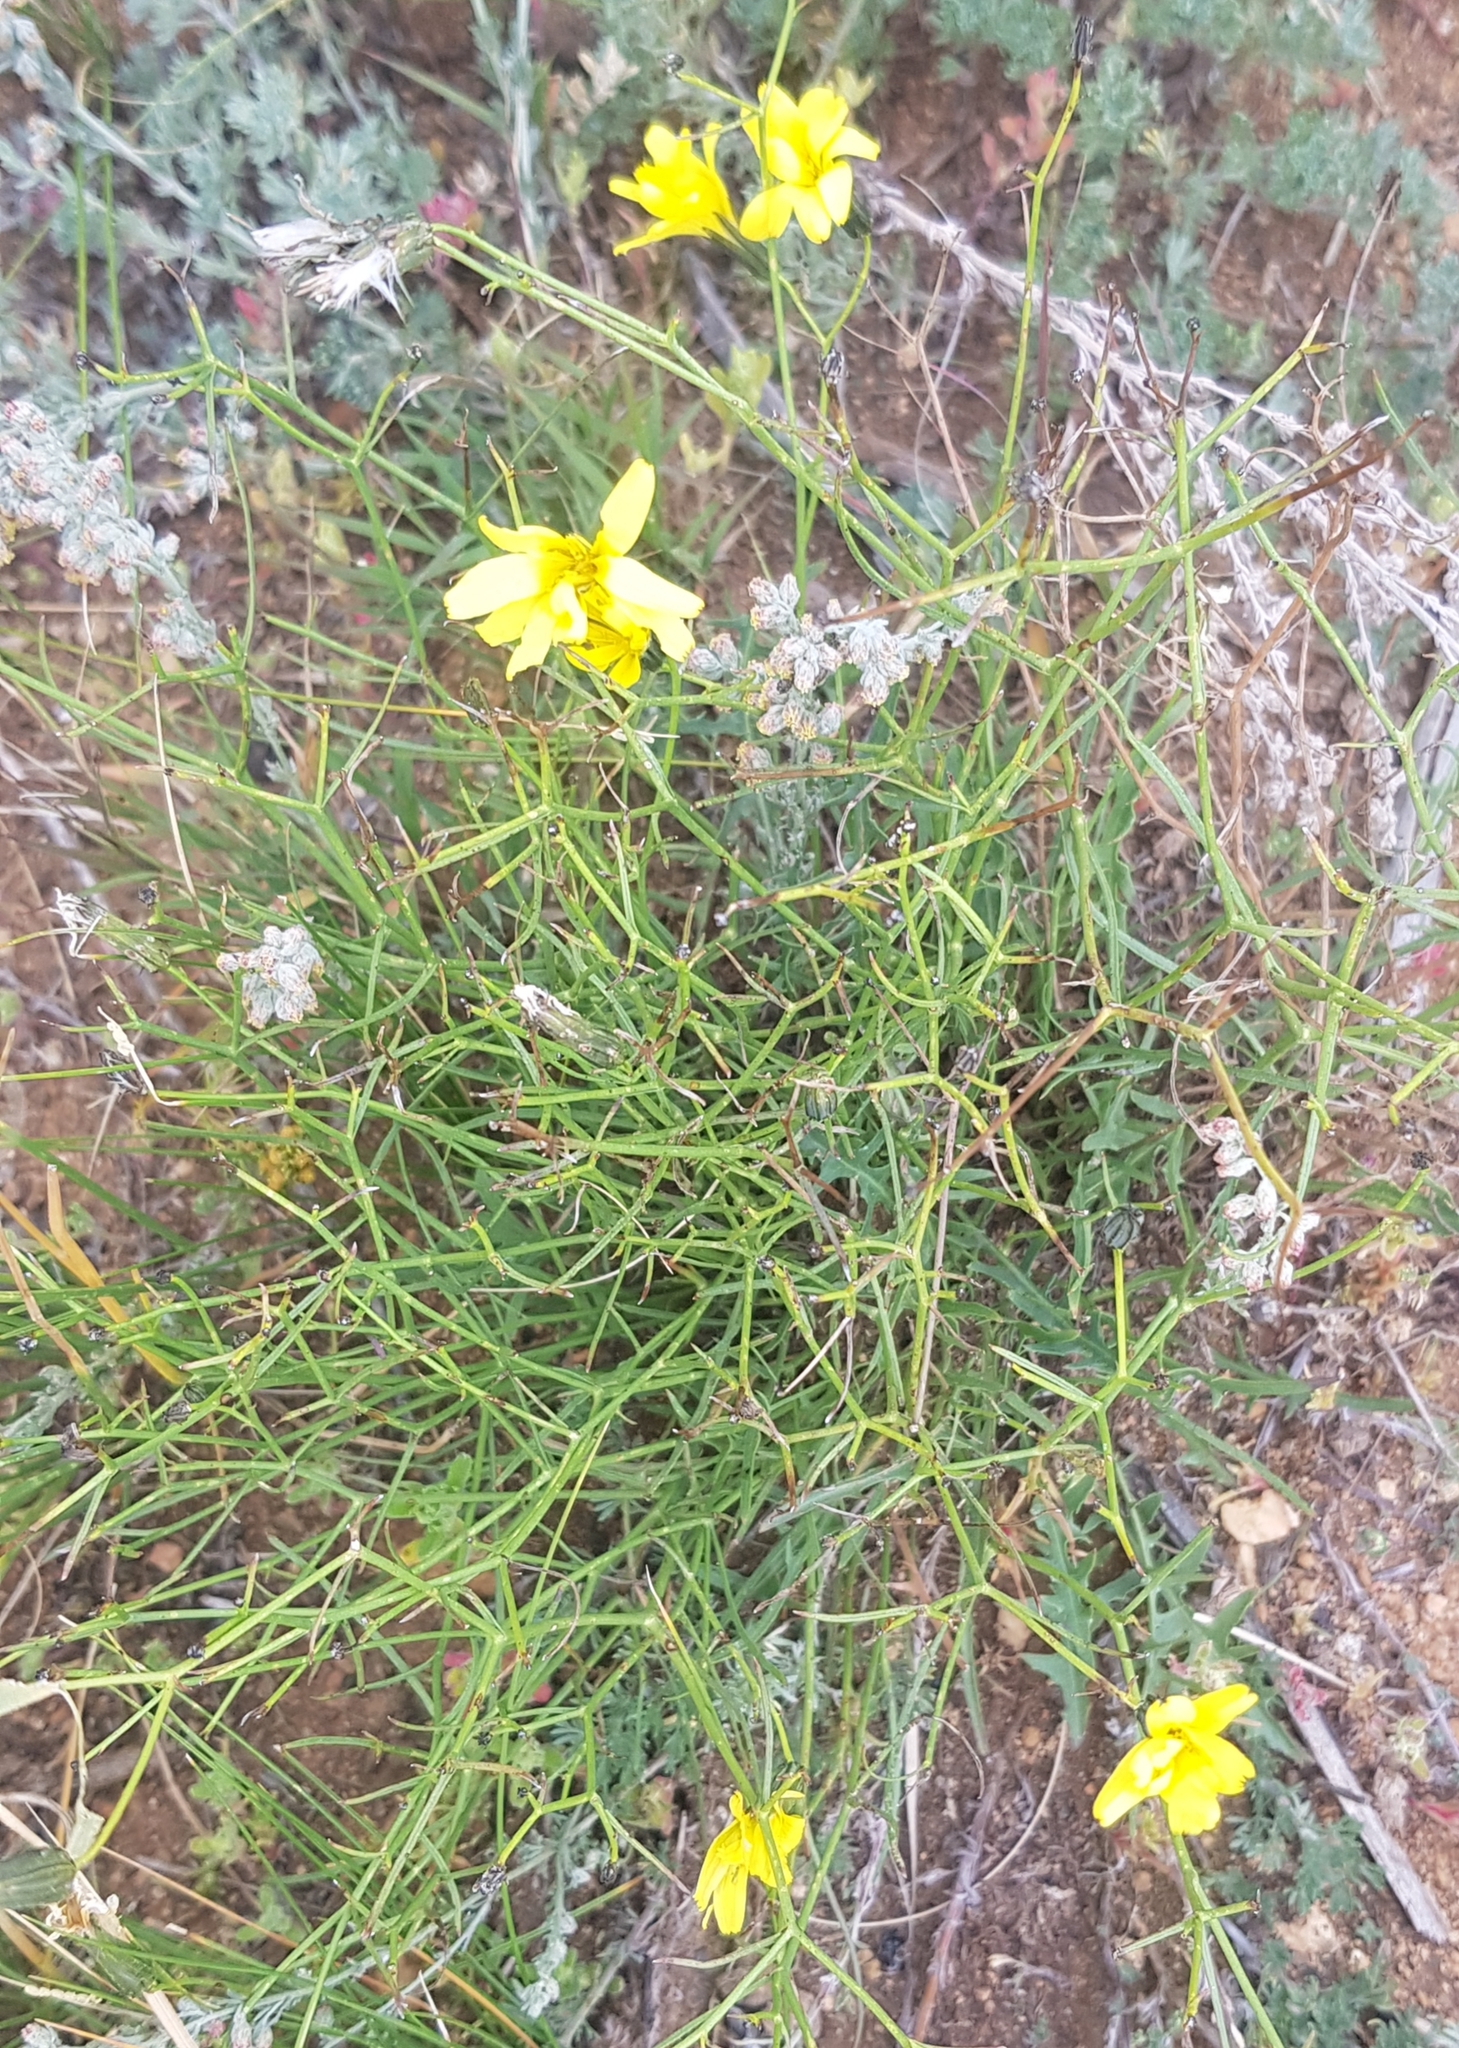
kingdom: Plantae
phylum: Tracheophyta
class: Magnoliopsida
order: Asterales
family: Asteraceae
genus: Crepidiastrum
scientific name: Crepidiastrum tenuifolium
